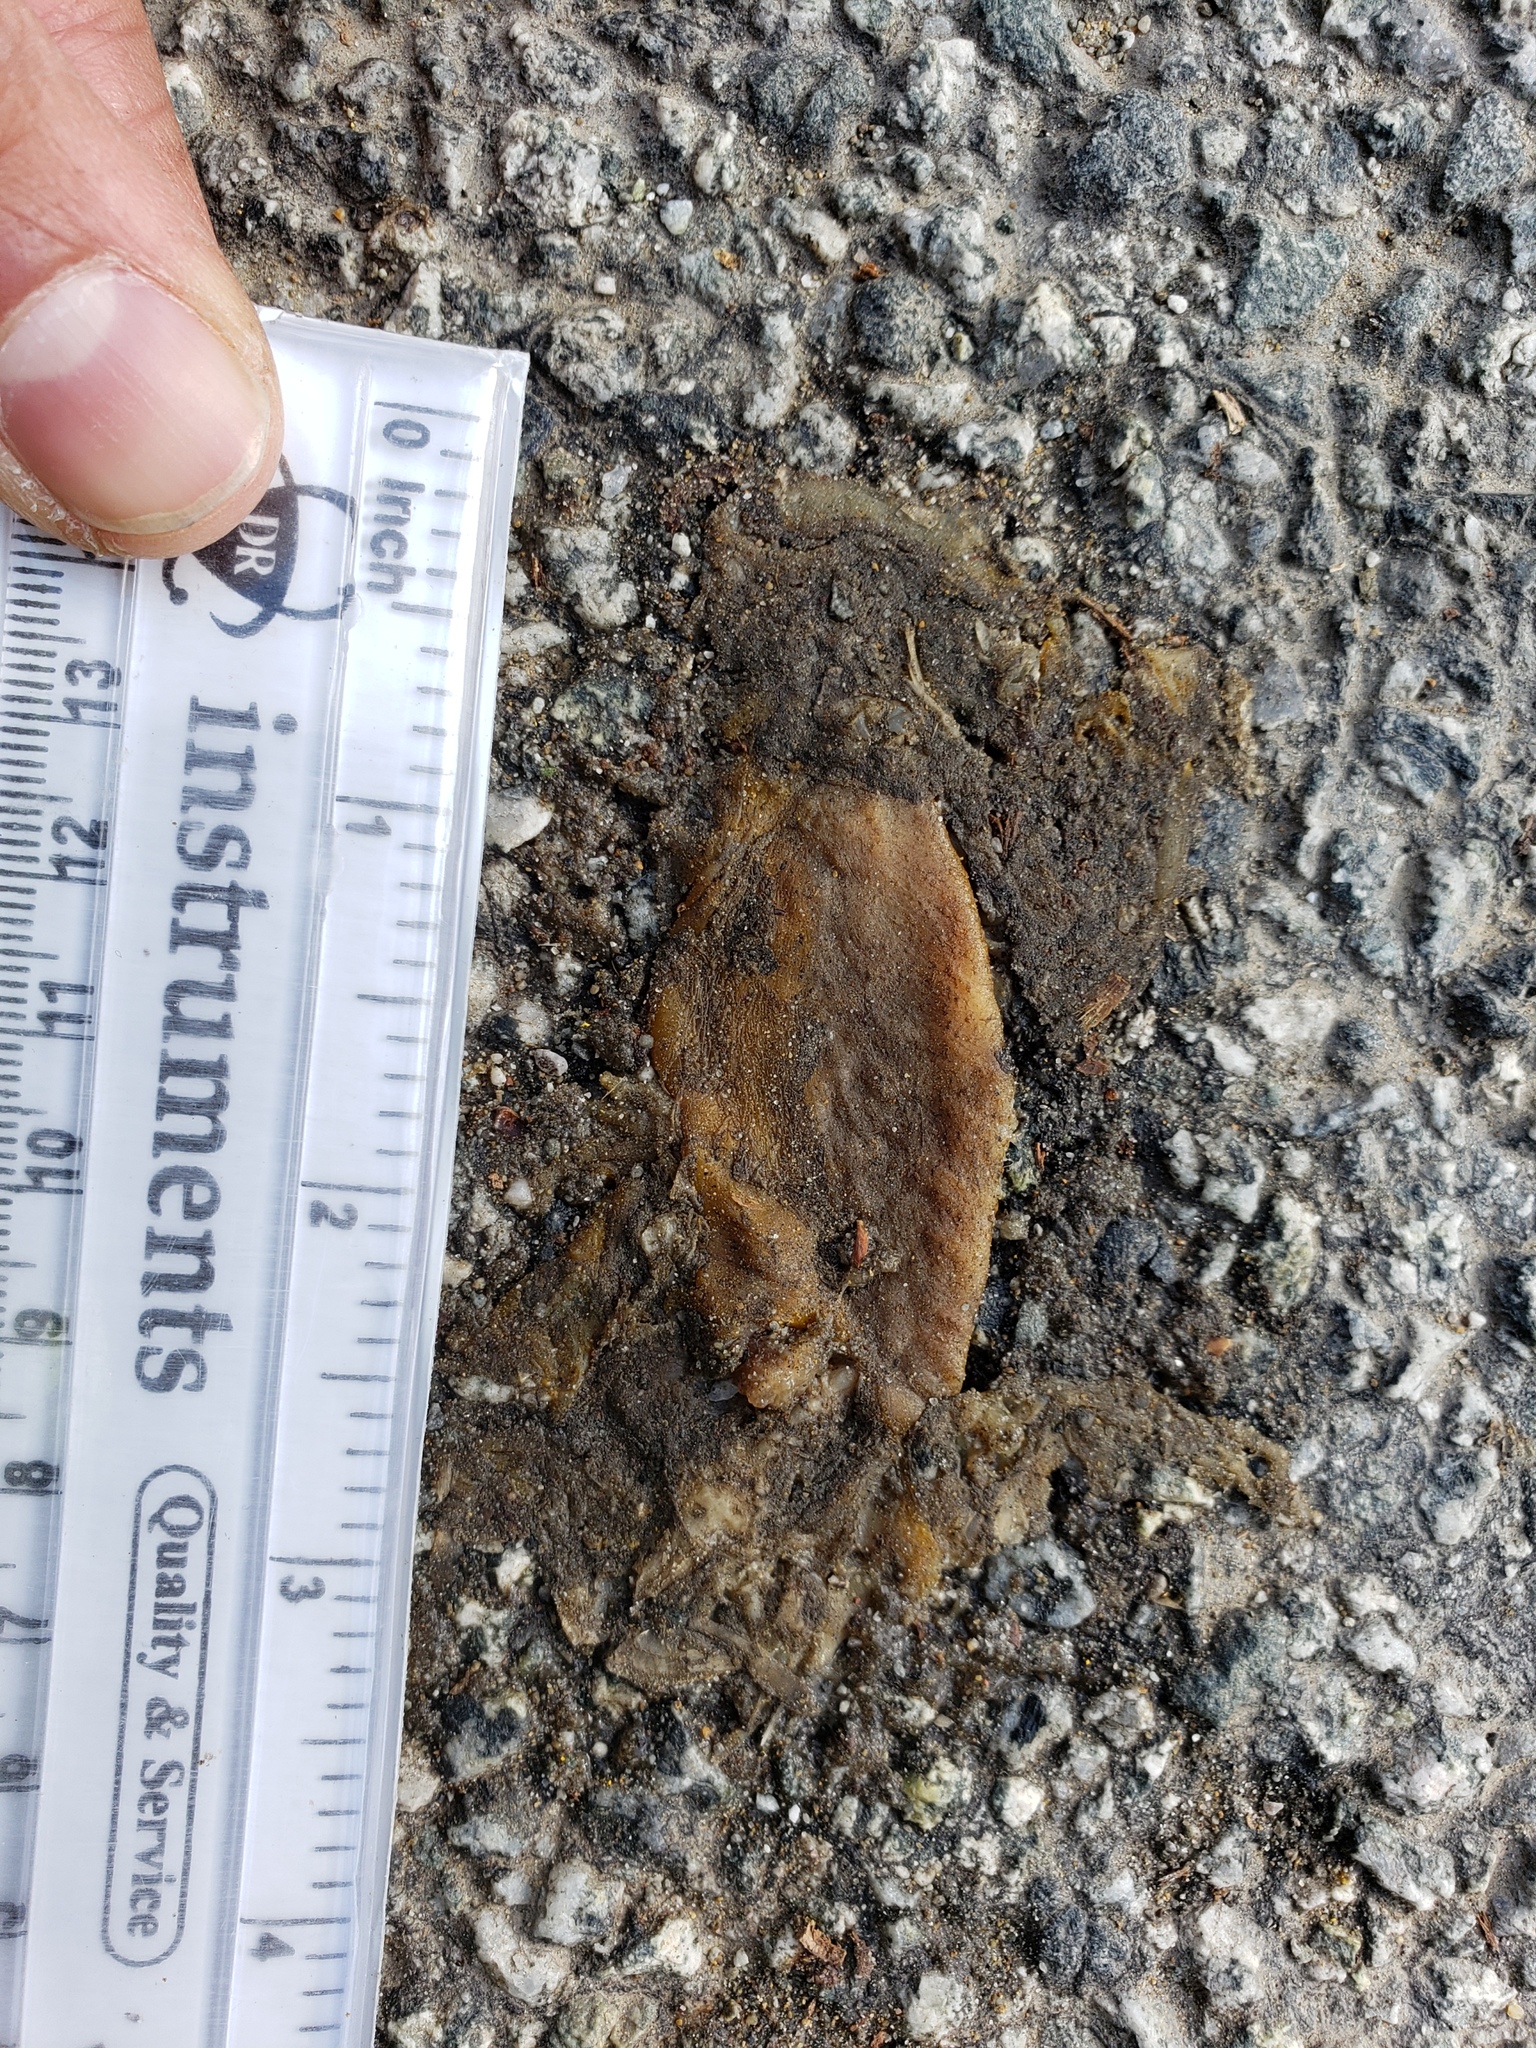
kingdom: Animalia
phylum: Chordata
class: Amphibia
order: Caudata
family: Salamandridae
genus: Taricha
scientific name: Taricha
